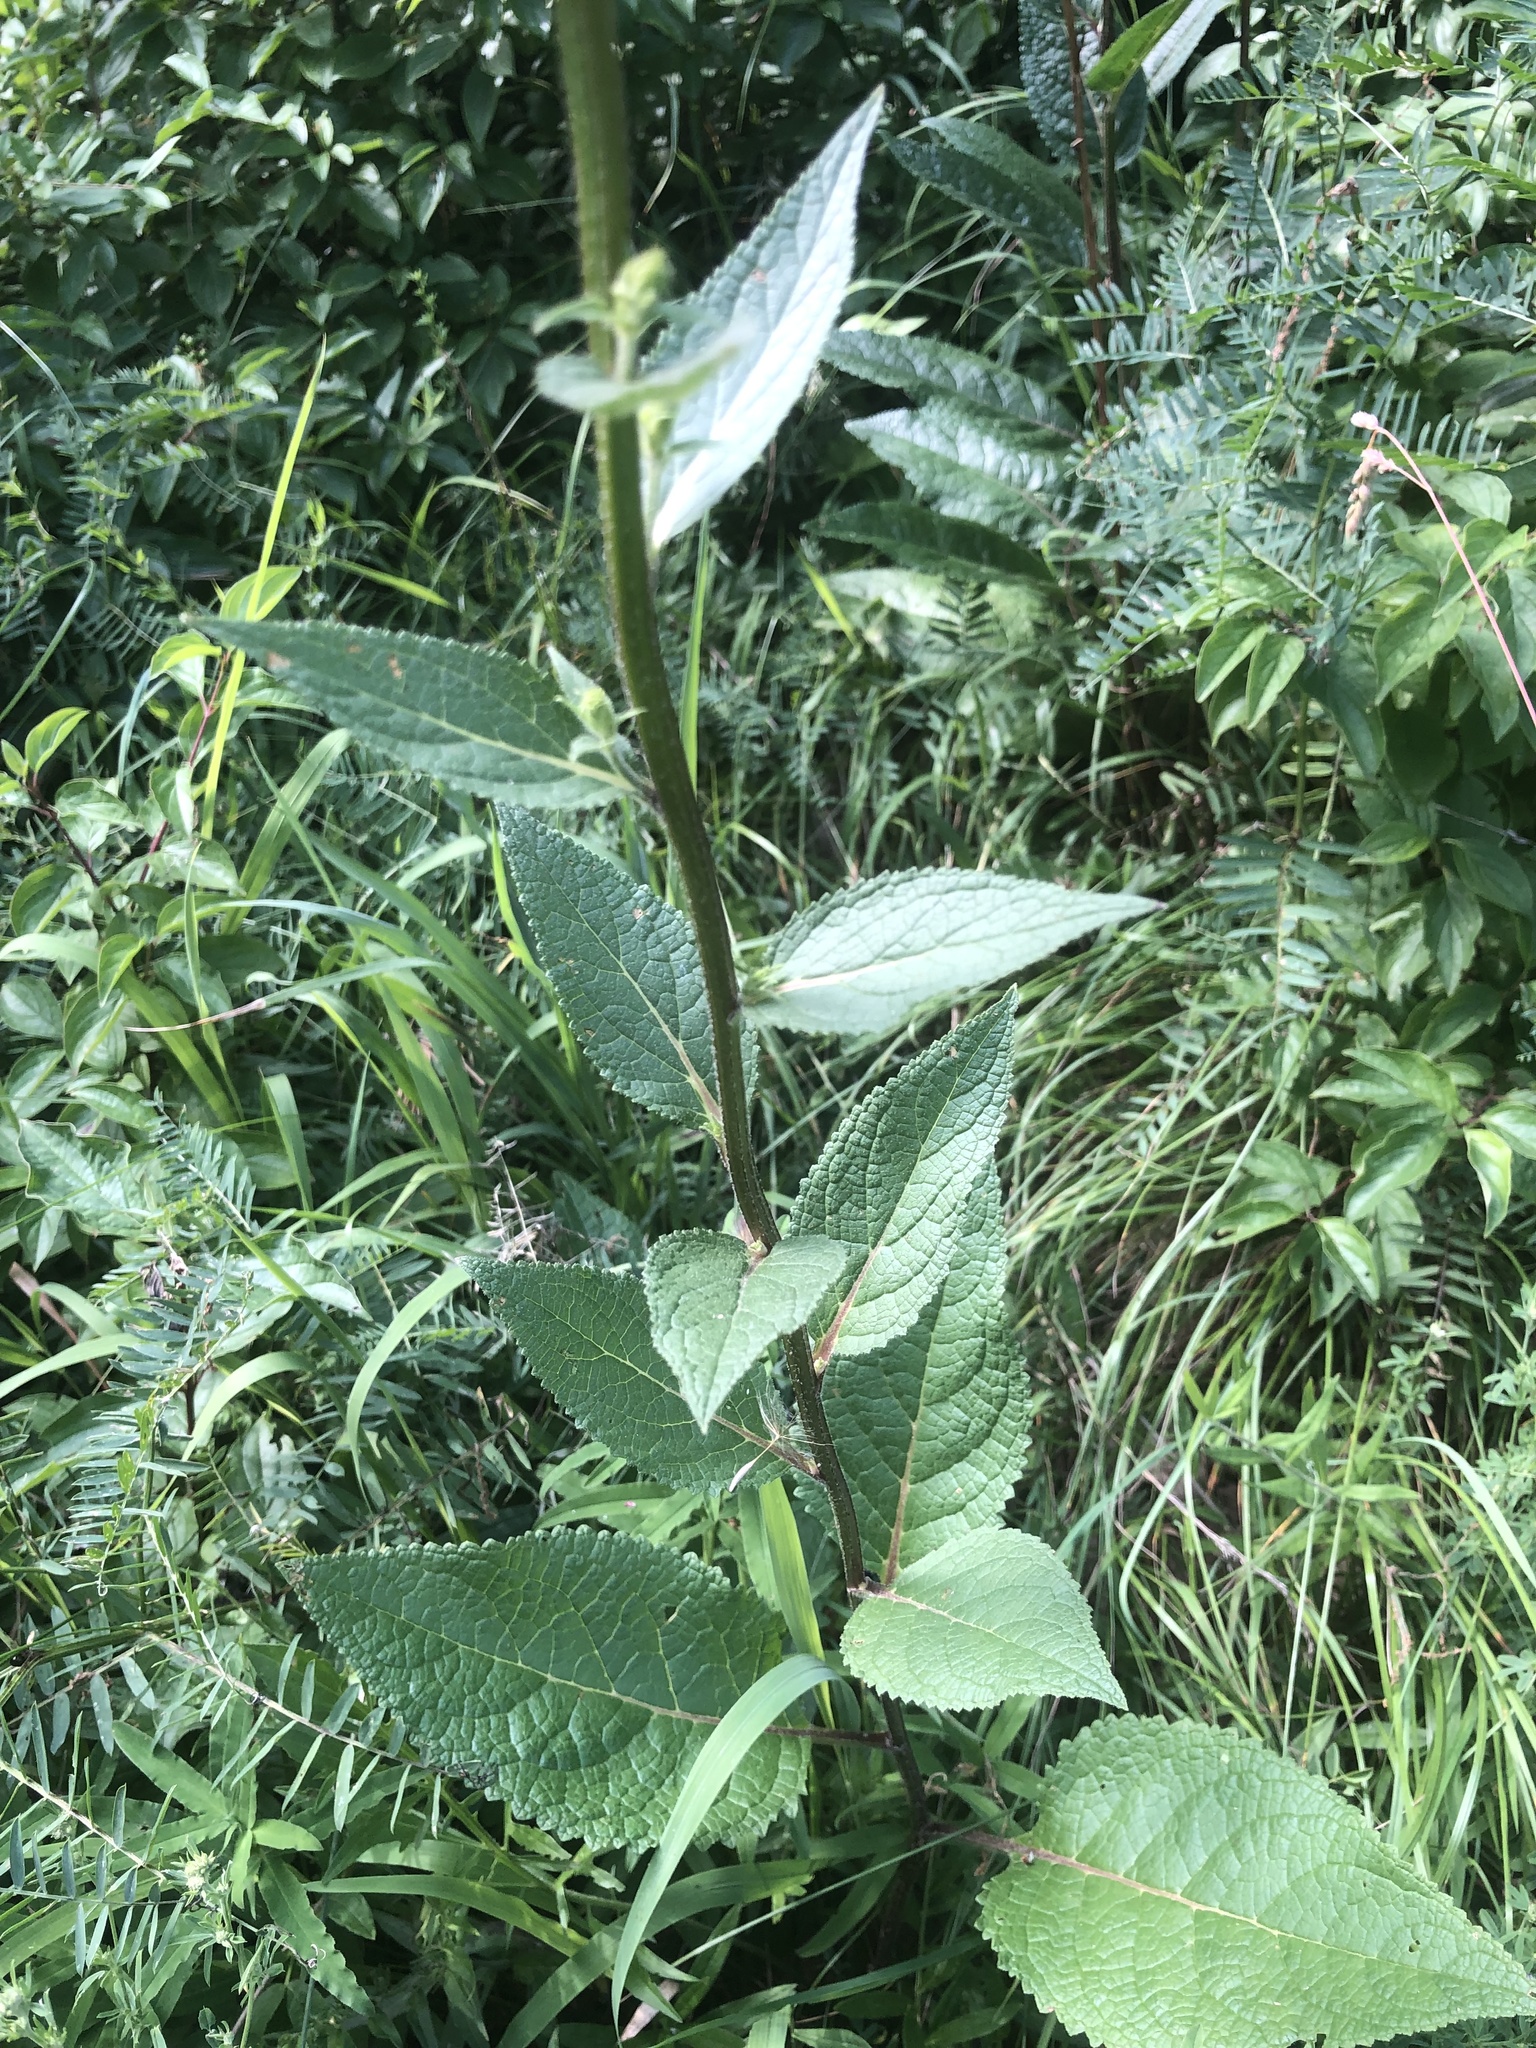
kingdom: Plantae
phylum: Tracheophyta
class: Magnoliopsida
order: Lamiales
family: Scrophulariaceae
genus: Verbascum
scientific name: Verbascum chaixii
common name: Nettle-leaved mullein
